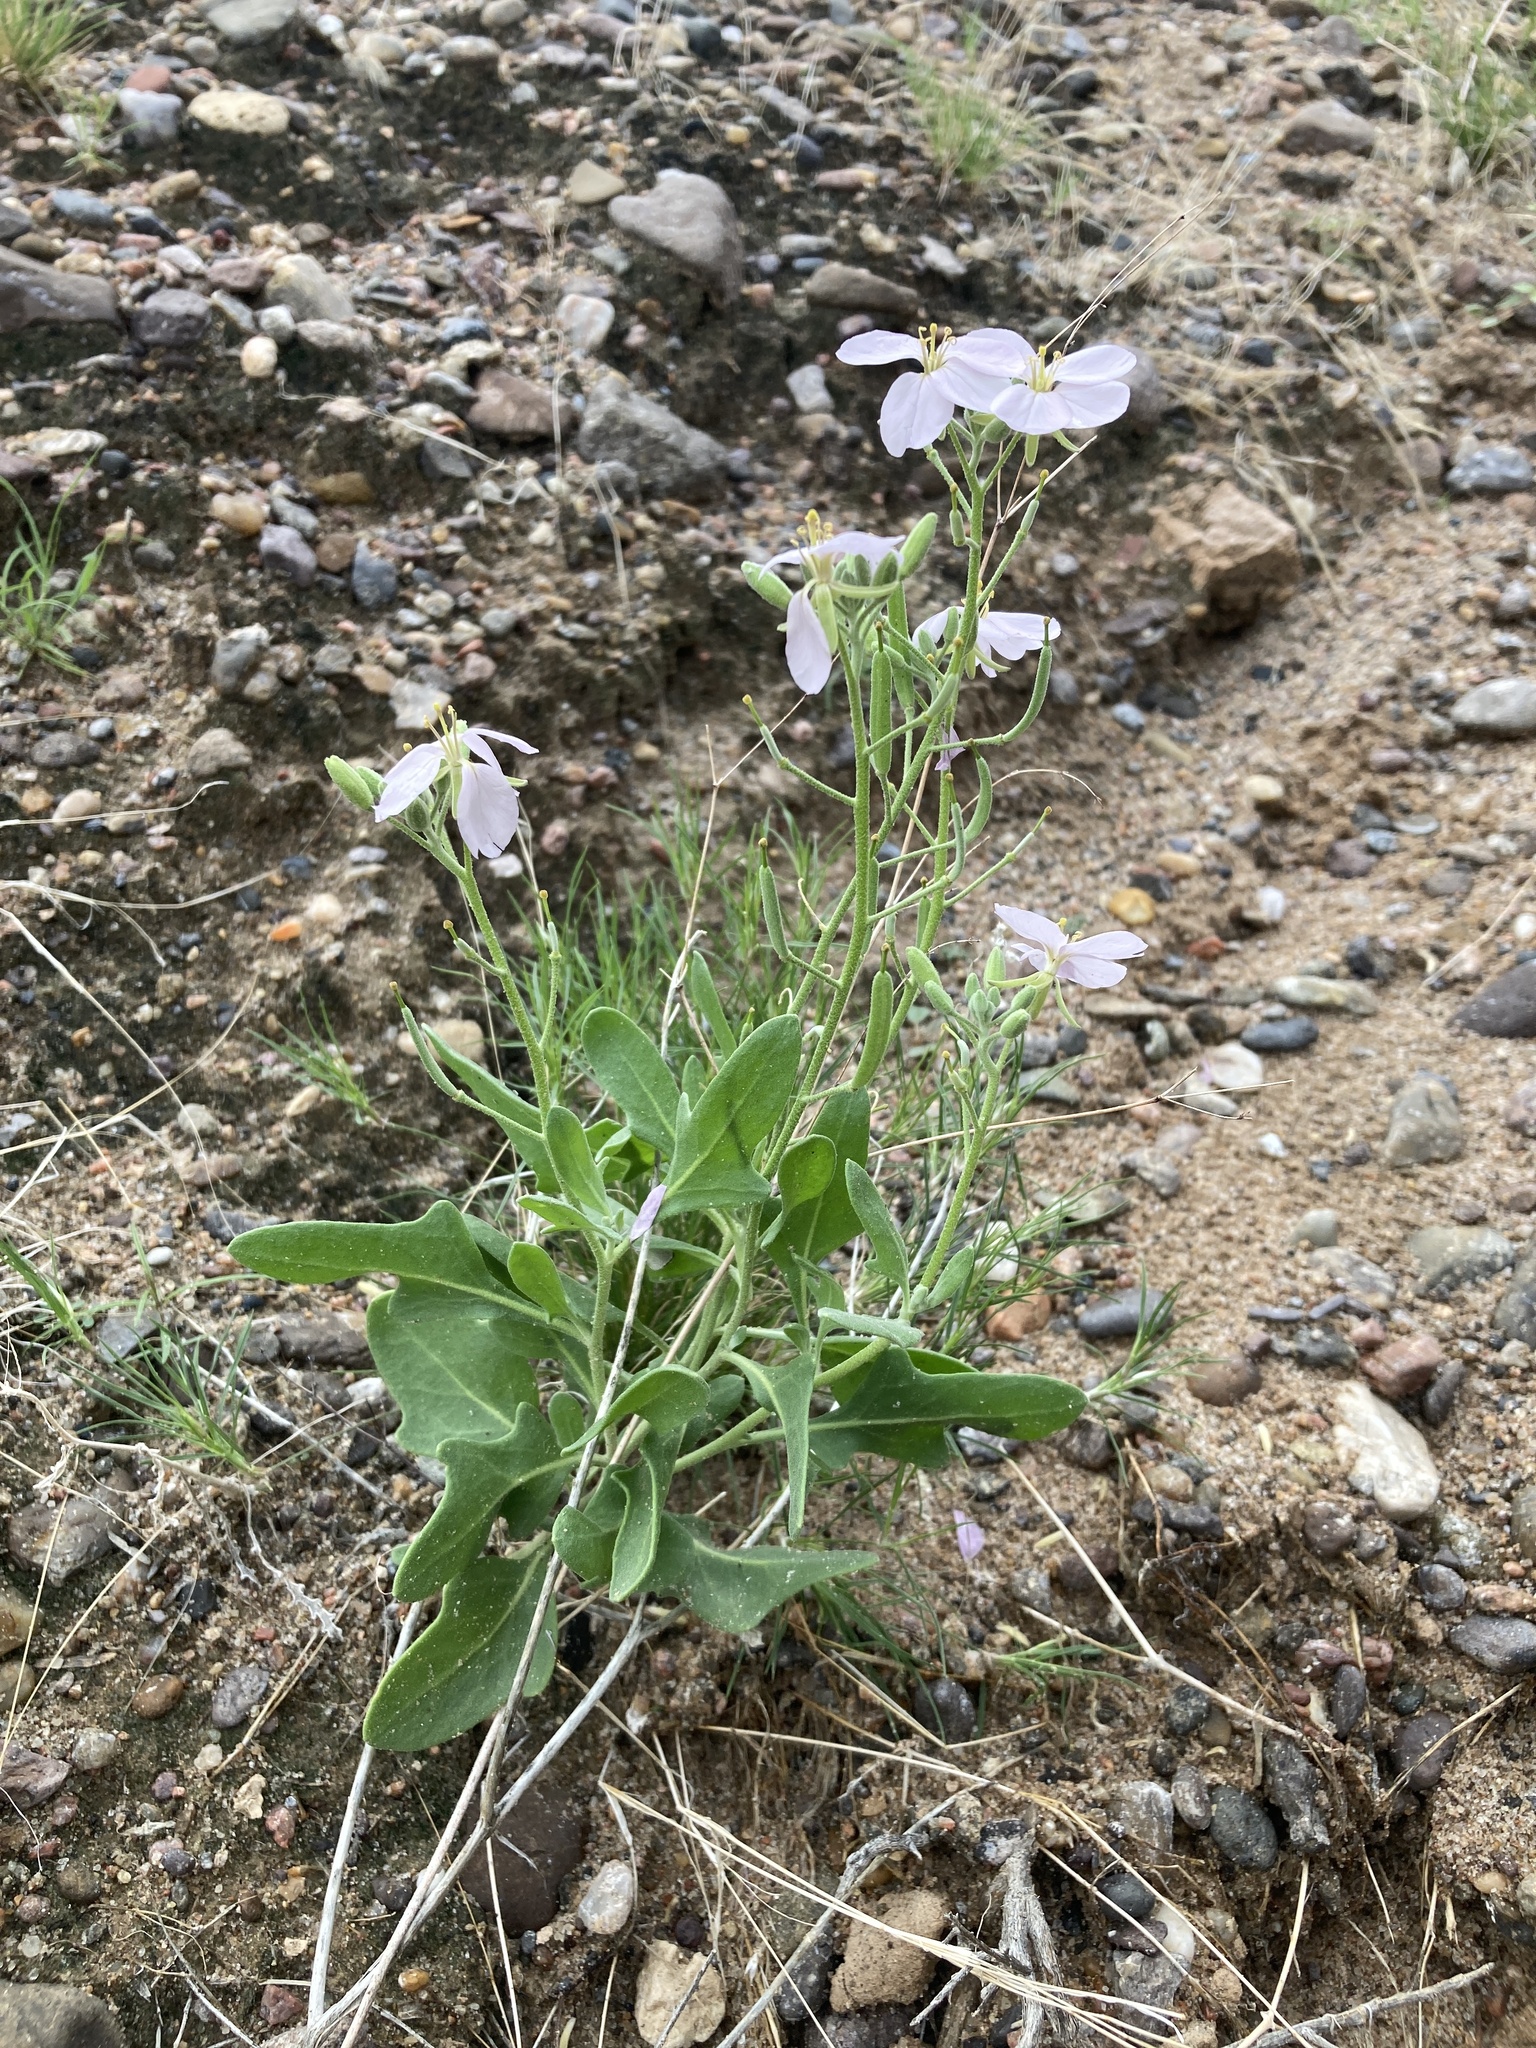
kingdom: Plantae
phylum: Tracheophyta
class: Magnoliopsida
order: Brassicales
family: Brassicaceae
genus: Nerisyrenia
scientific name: Nerisyrenia camporum
